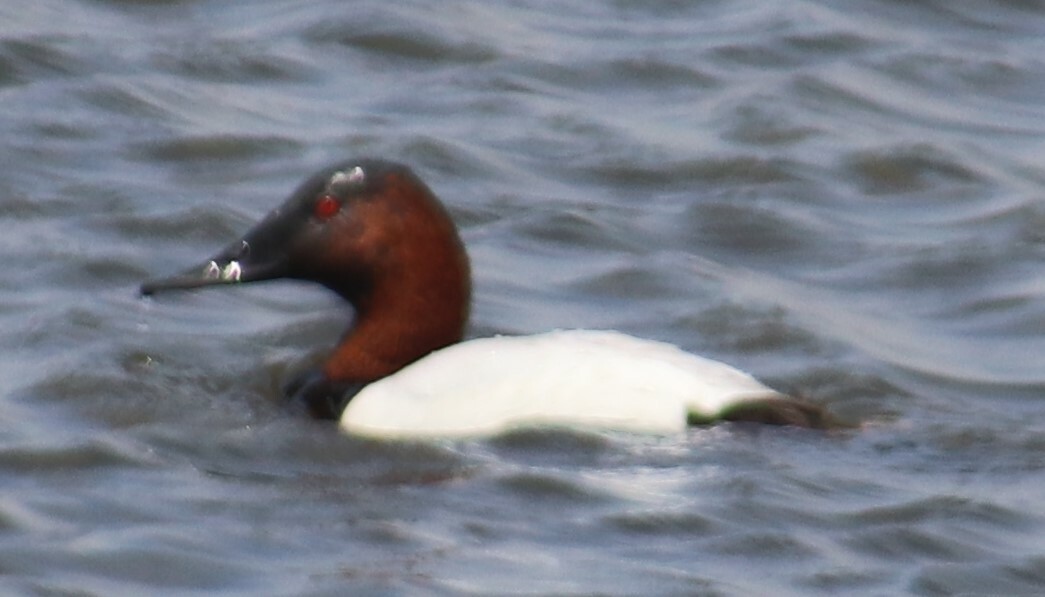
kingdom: Animalia
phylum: Chordata
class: Aves
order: Anseriformes
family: Anatidae
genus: Aythya
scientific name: Aythya valisineria
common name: Canvasback
